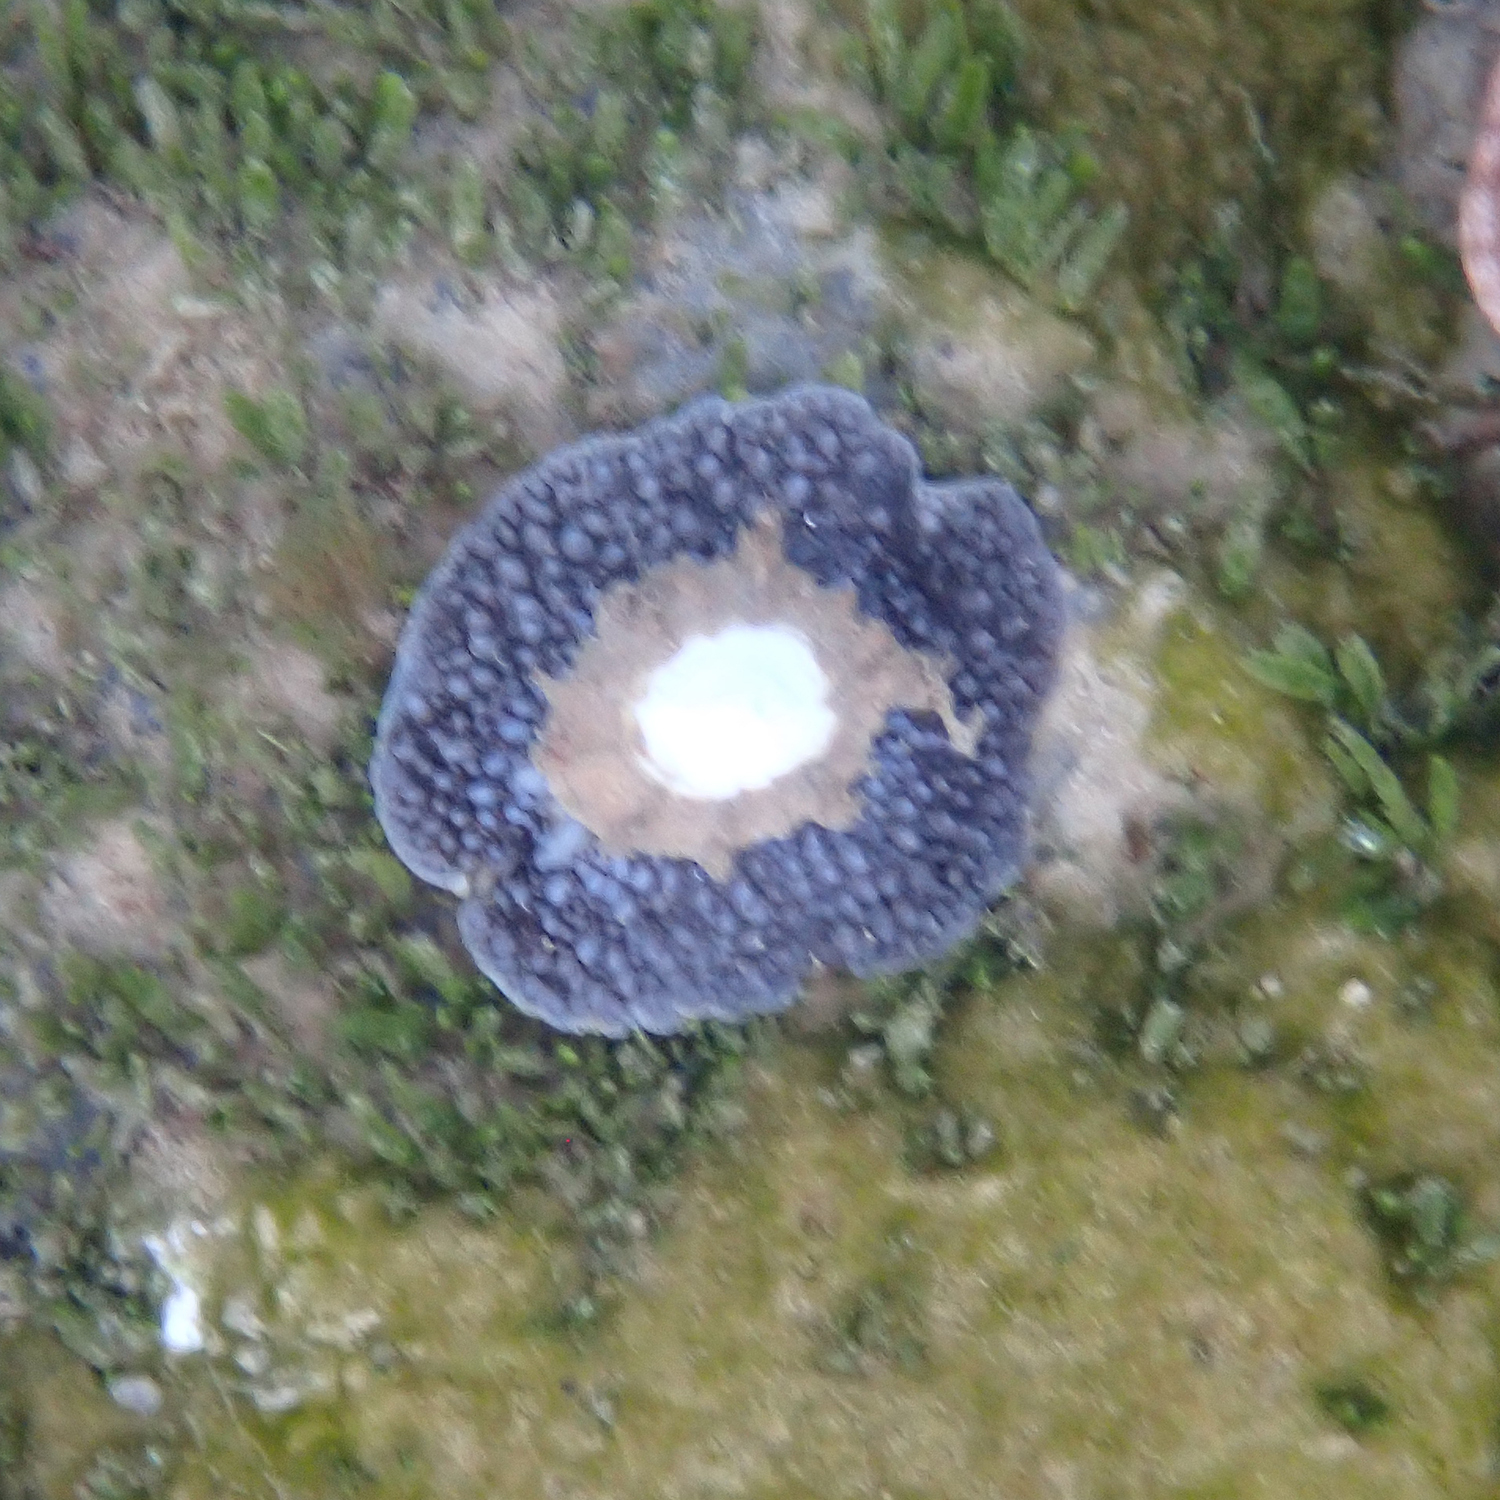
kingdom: Animalia
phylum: Mollusca
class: Gastropoda
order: Umbraculida
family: Umbraculidae
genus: Umbraculum
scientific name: Umbraculum umbraculum
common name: Atlantic umbrella slug
